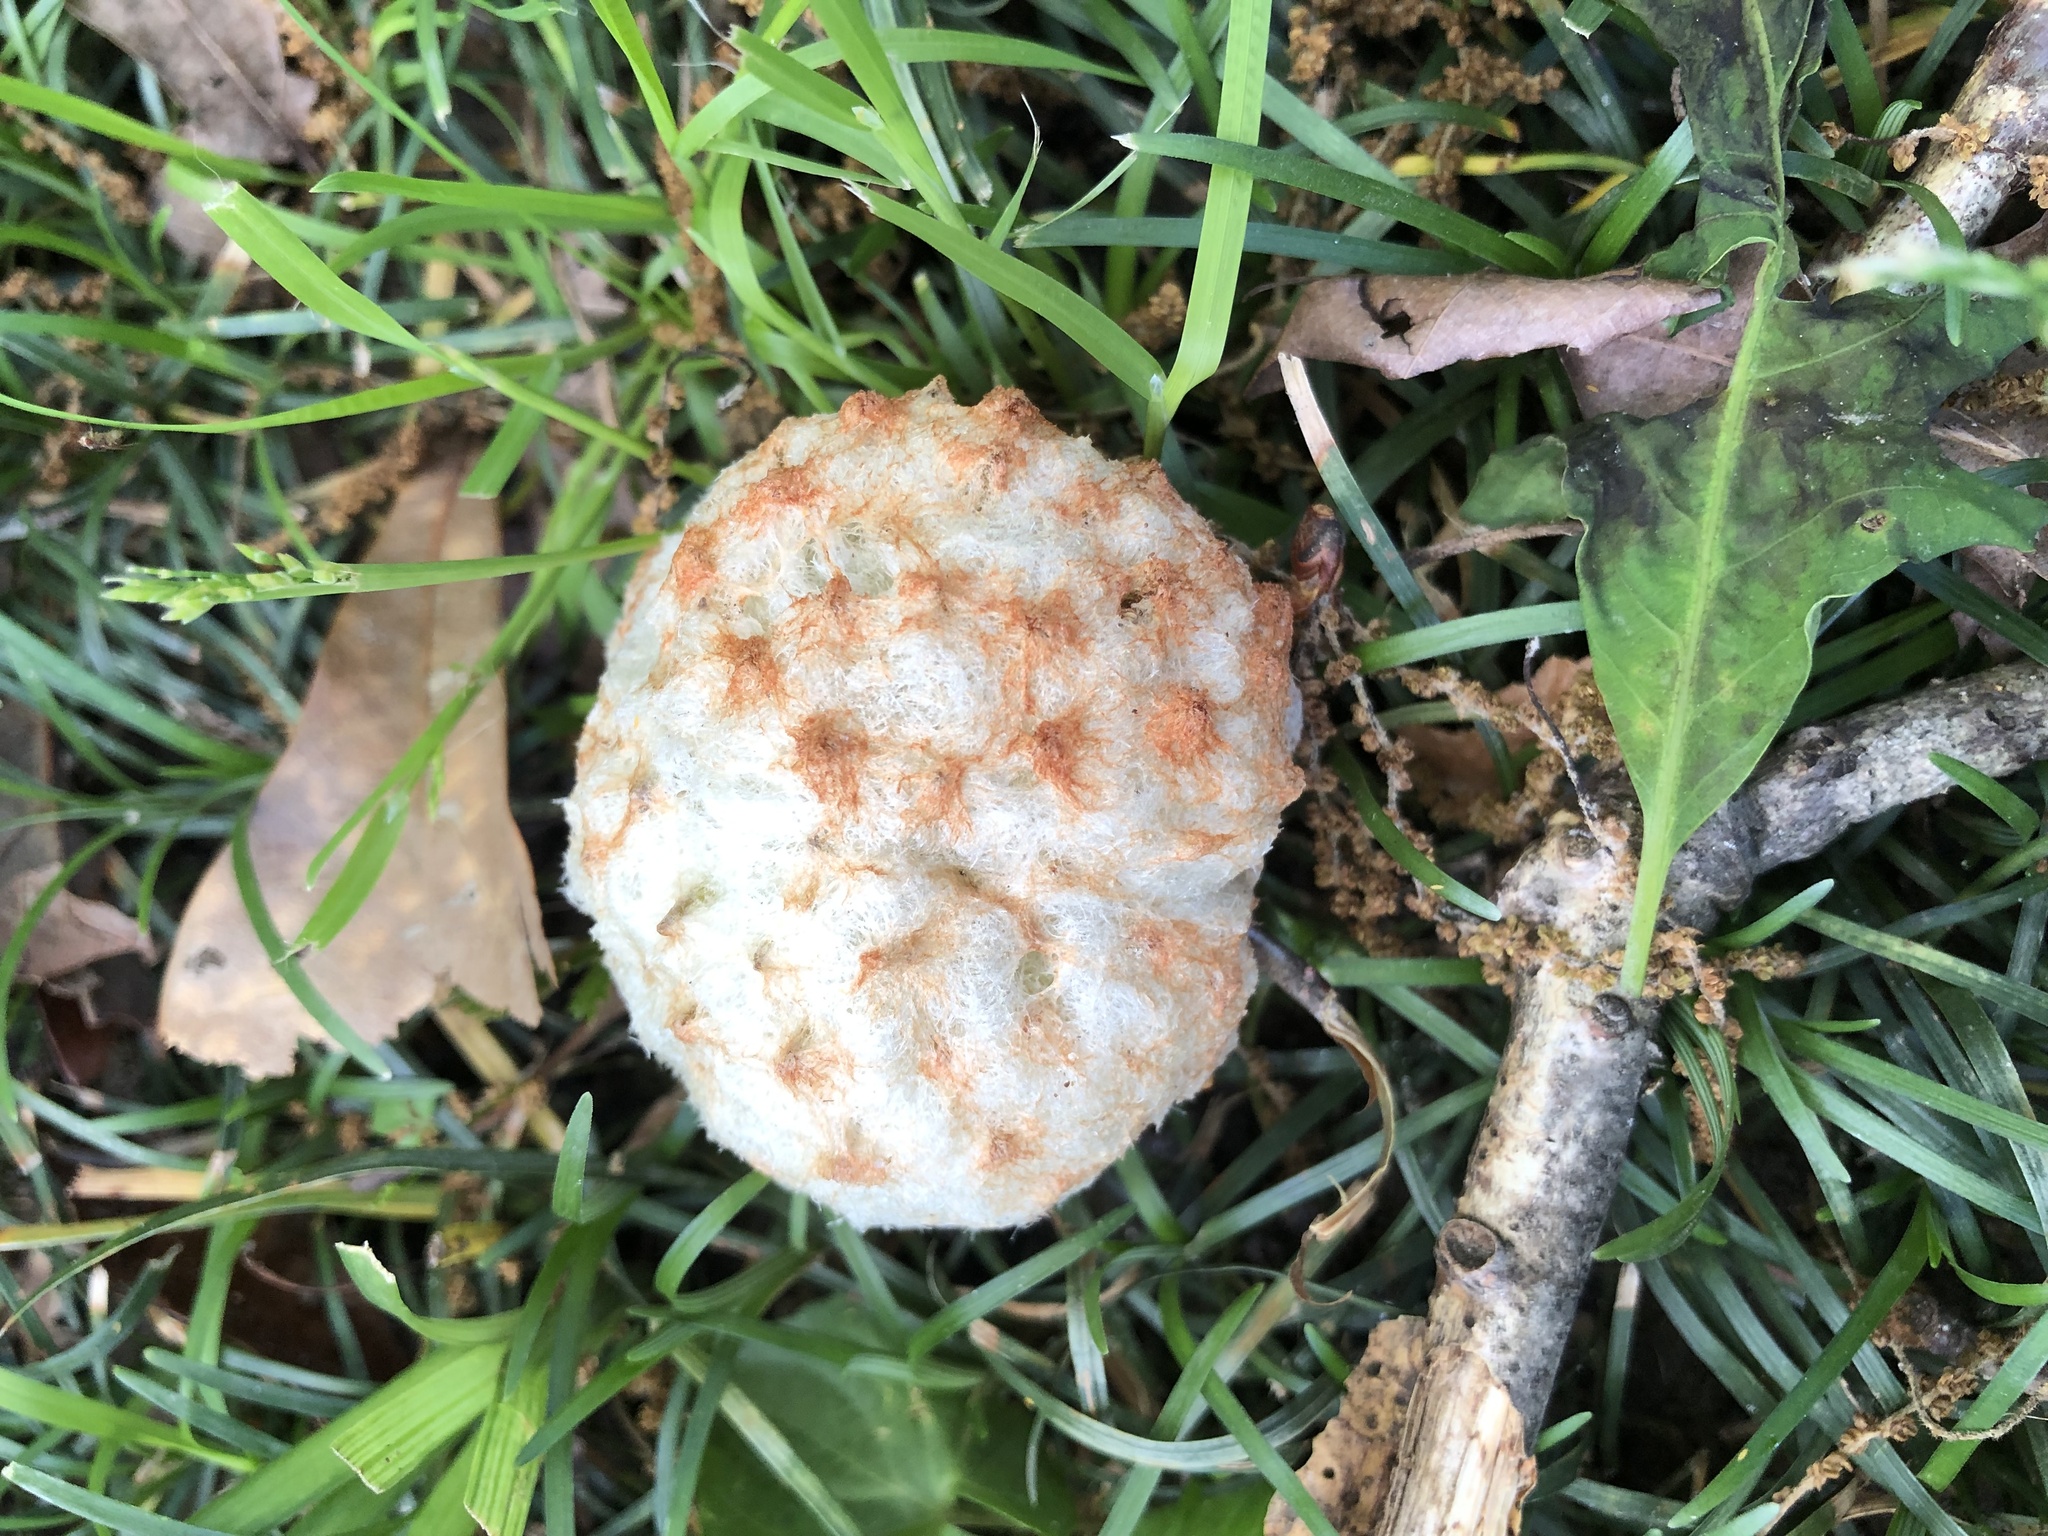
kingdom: Animalia
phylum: Arthropoda
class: Insecta
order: Hymenoptera
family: Cynipidae
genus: Callirhytis
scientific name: Callirhytis
